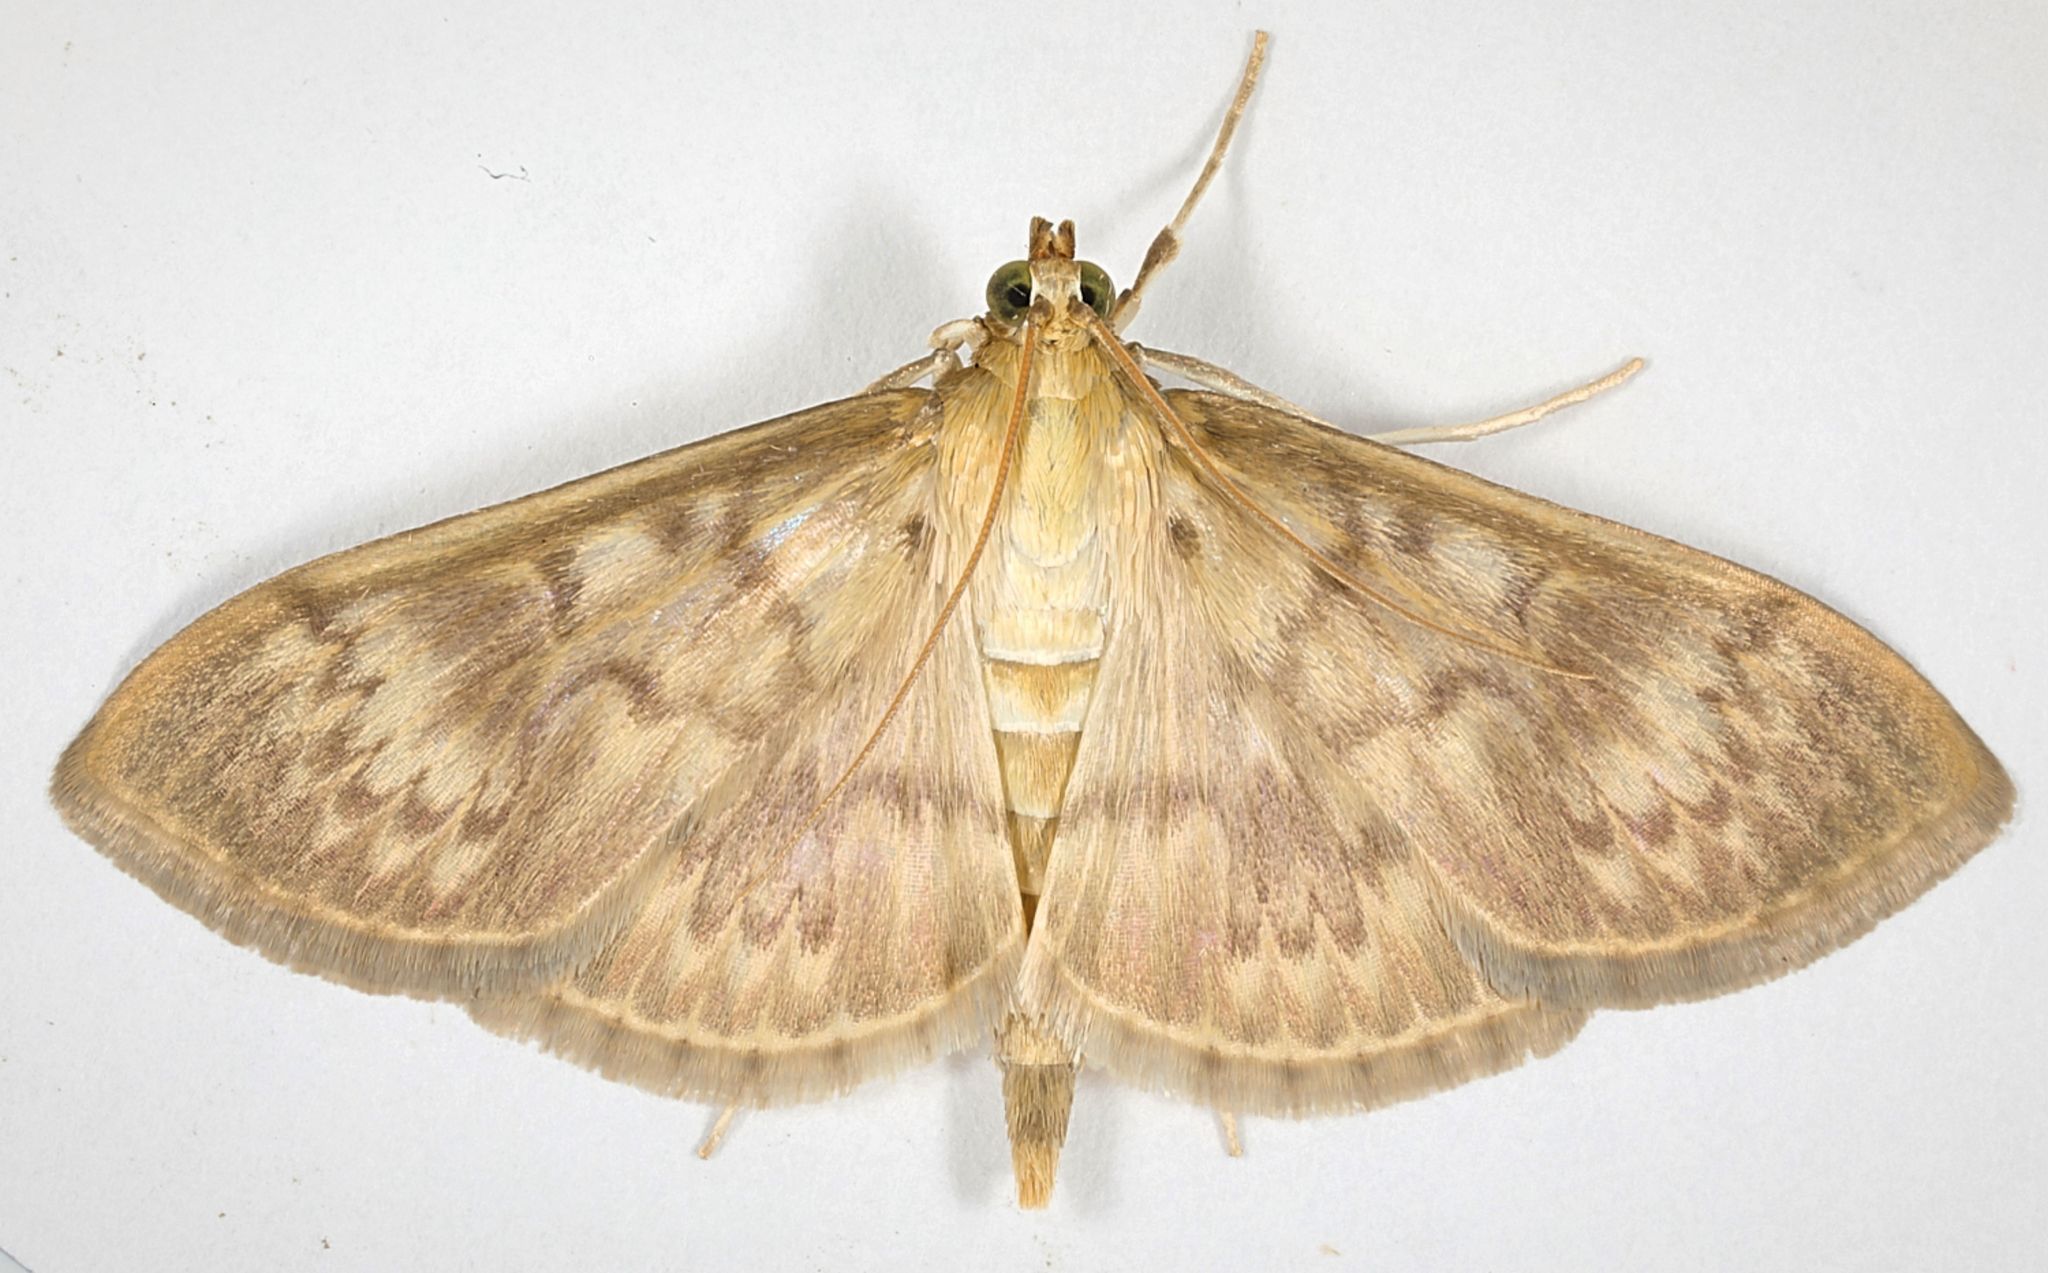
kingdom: Animalia
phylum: Arthropoda
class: Insecta
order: Lepidoptera
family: Crambidae
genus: Patania
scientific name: Patania ruralis
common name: Mother of pearl
